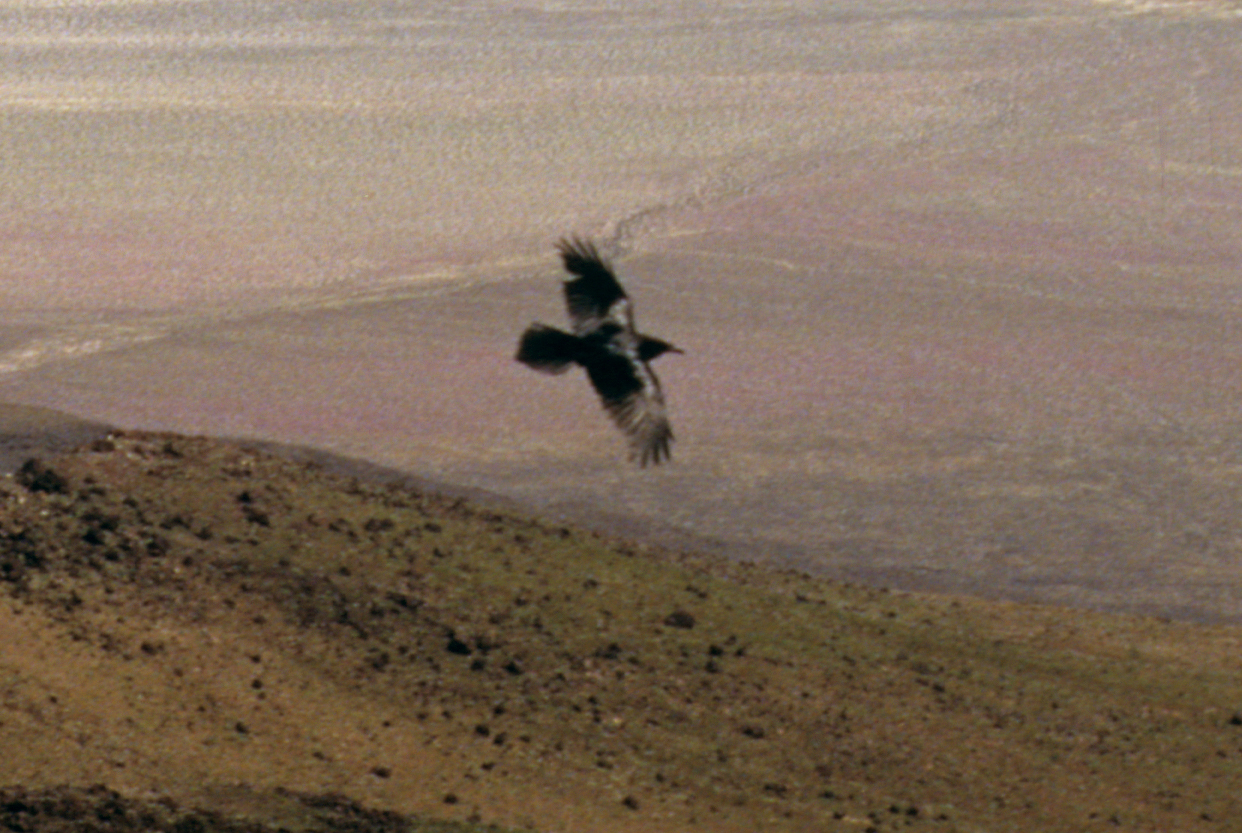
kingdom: Animalia
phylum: Chordata
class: Aves
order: Passeriformes
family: Corvidae
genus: Corvus
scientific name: Corvus corax
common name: Common raven
